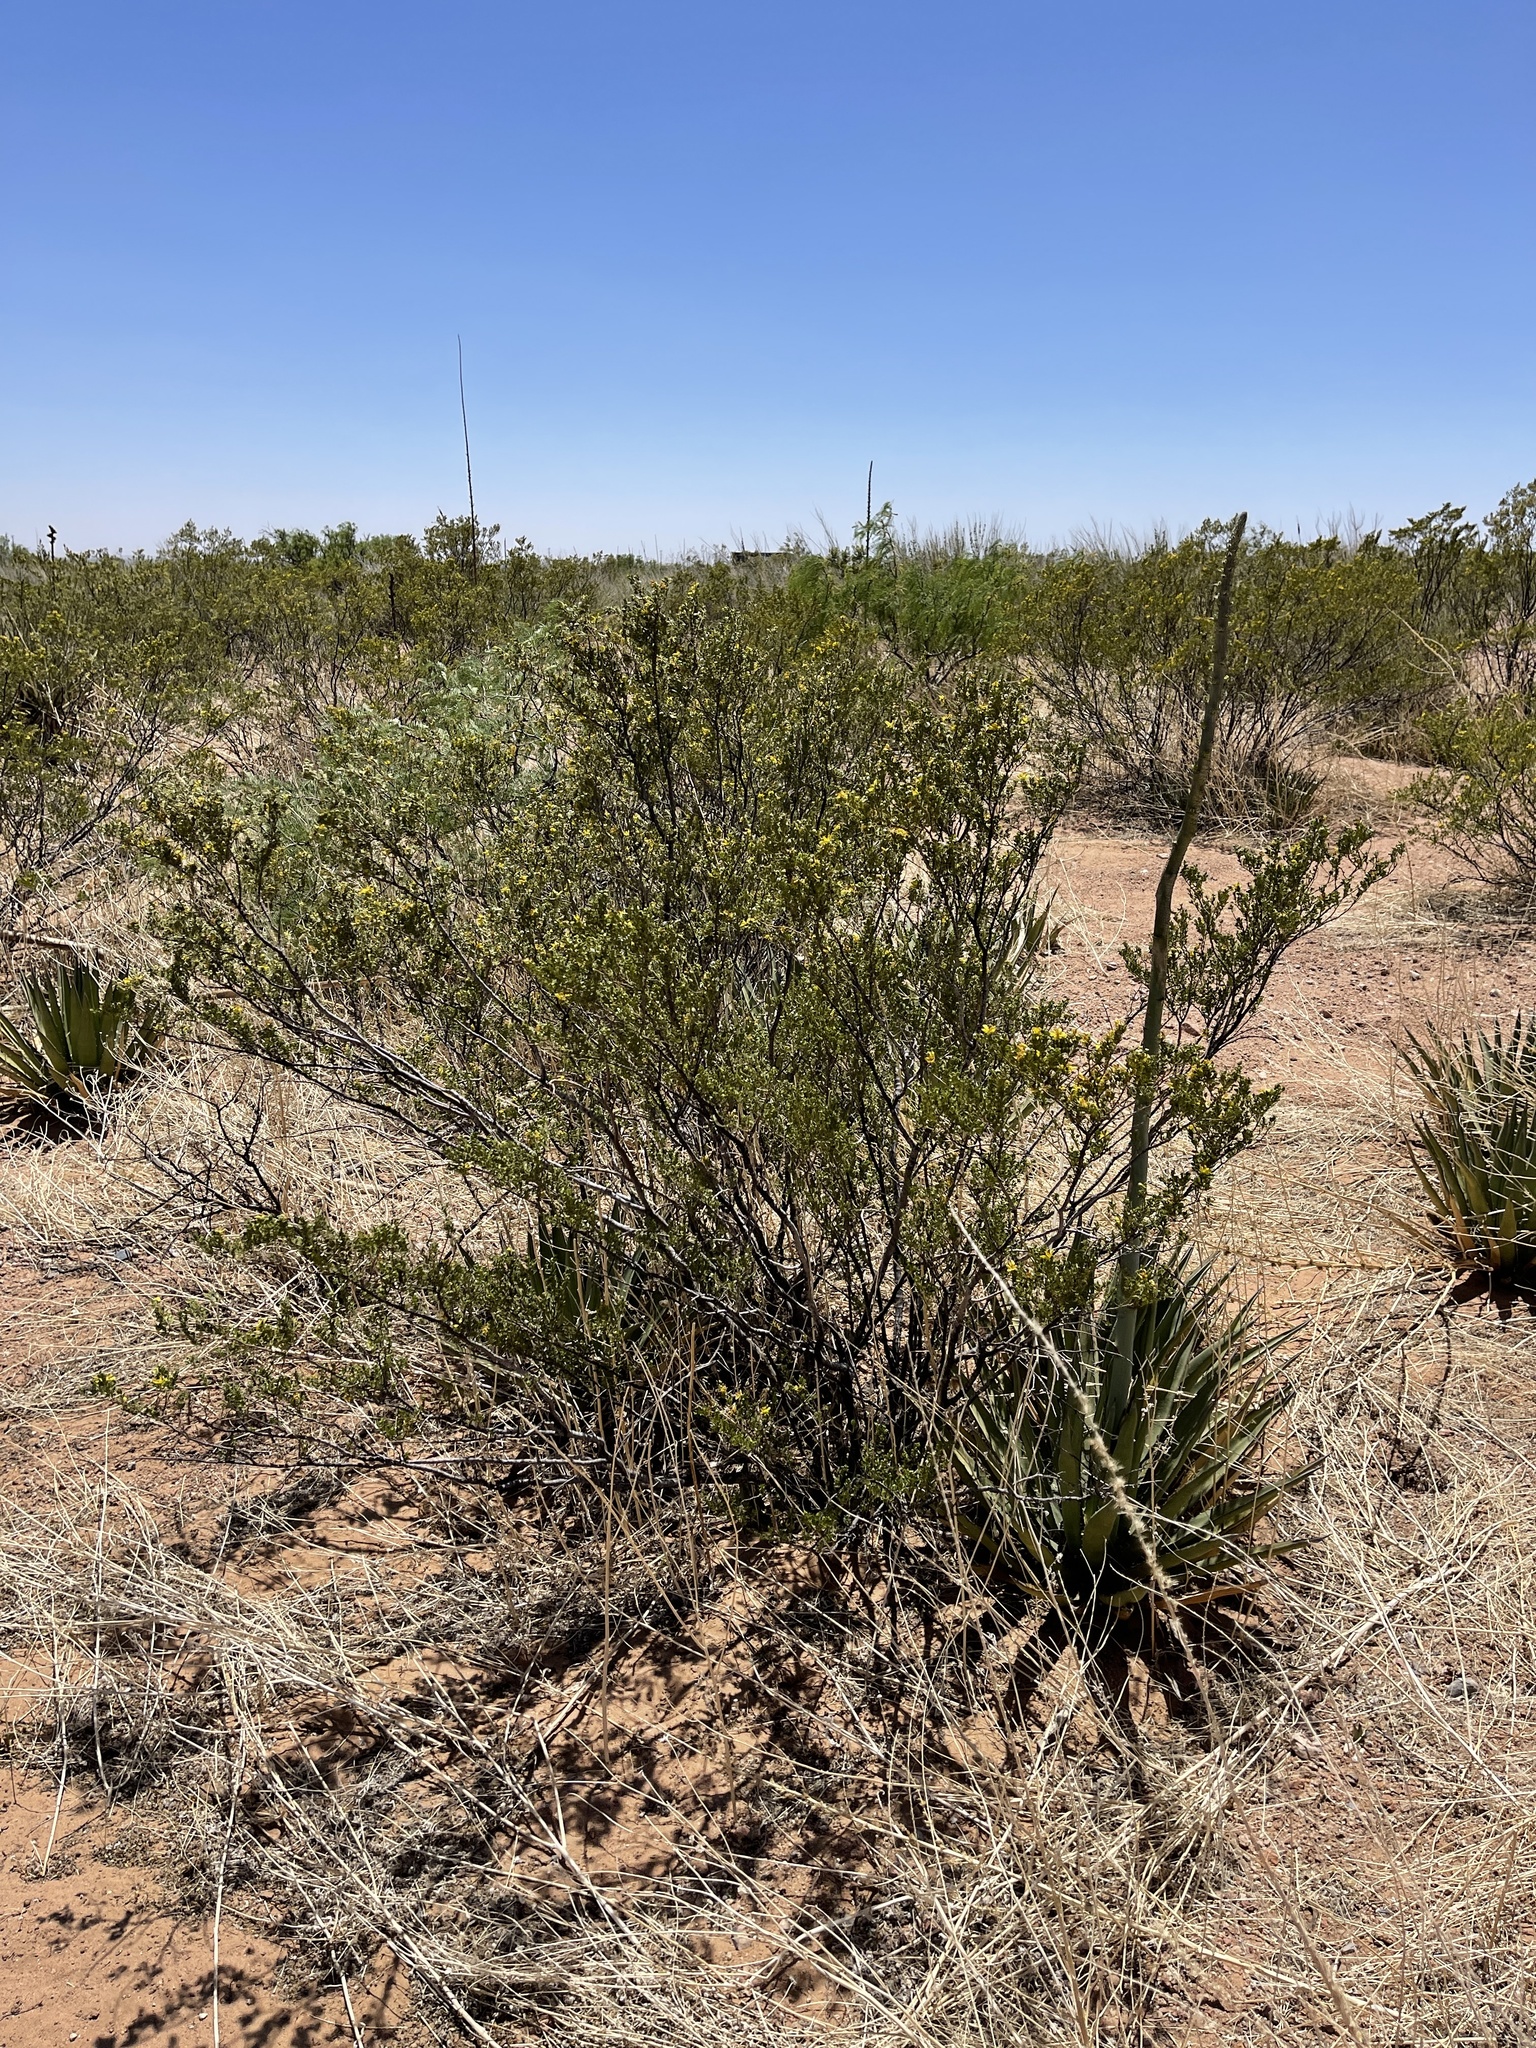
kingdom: Plantae
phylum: Tracheophyta
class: Magnoliopsida
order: Zygophyllales
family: Zygophyllaceae
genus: Larrea
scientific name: Larrea tridentata
